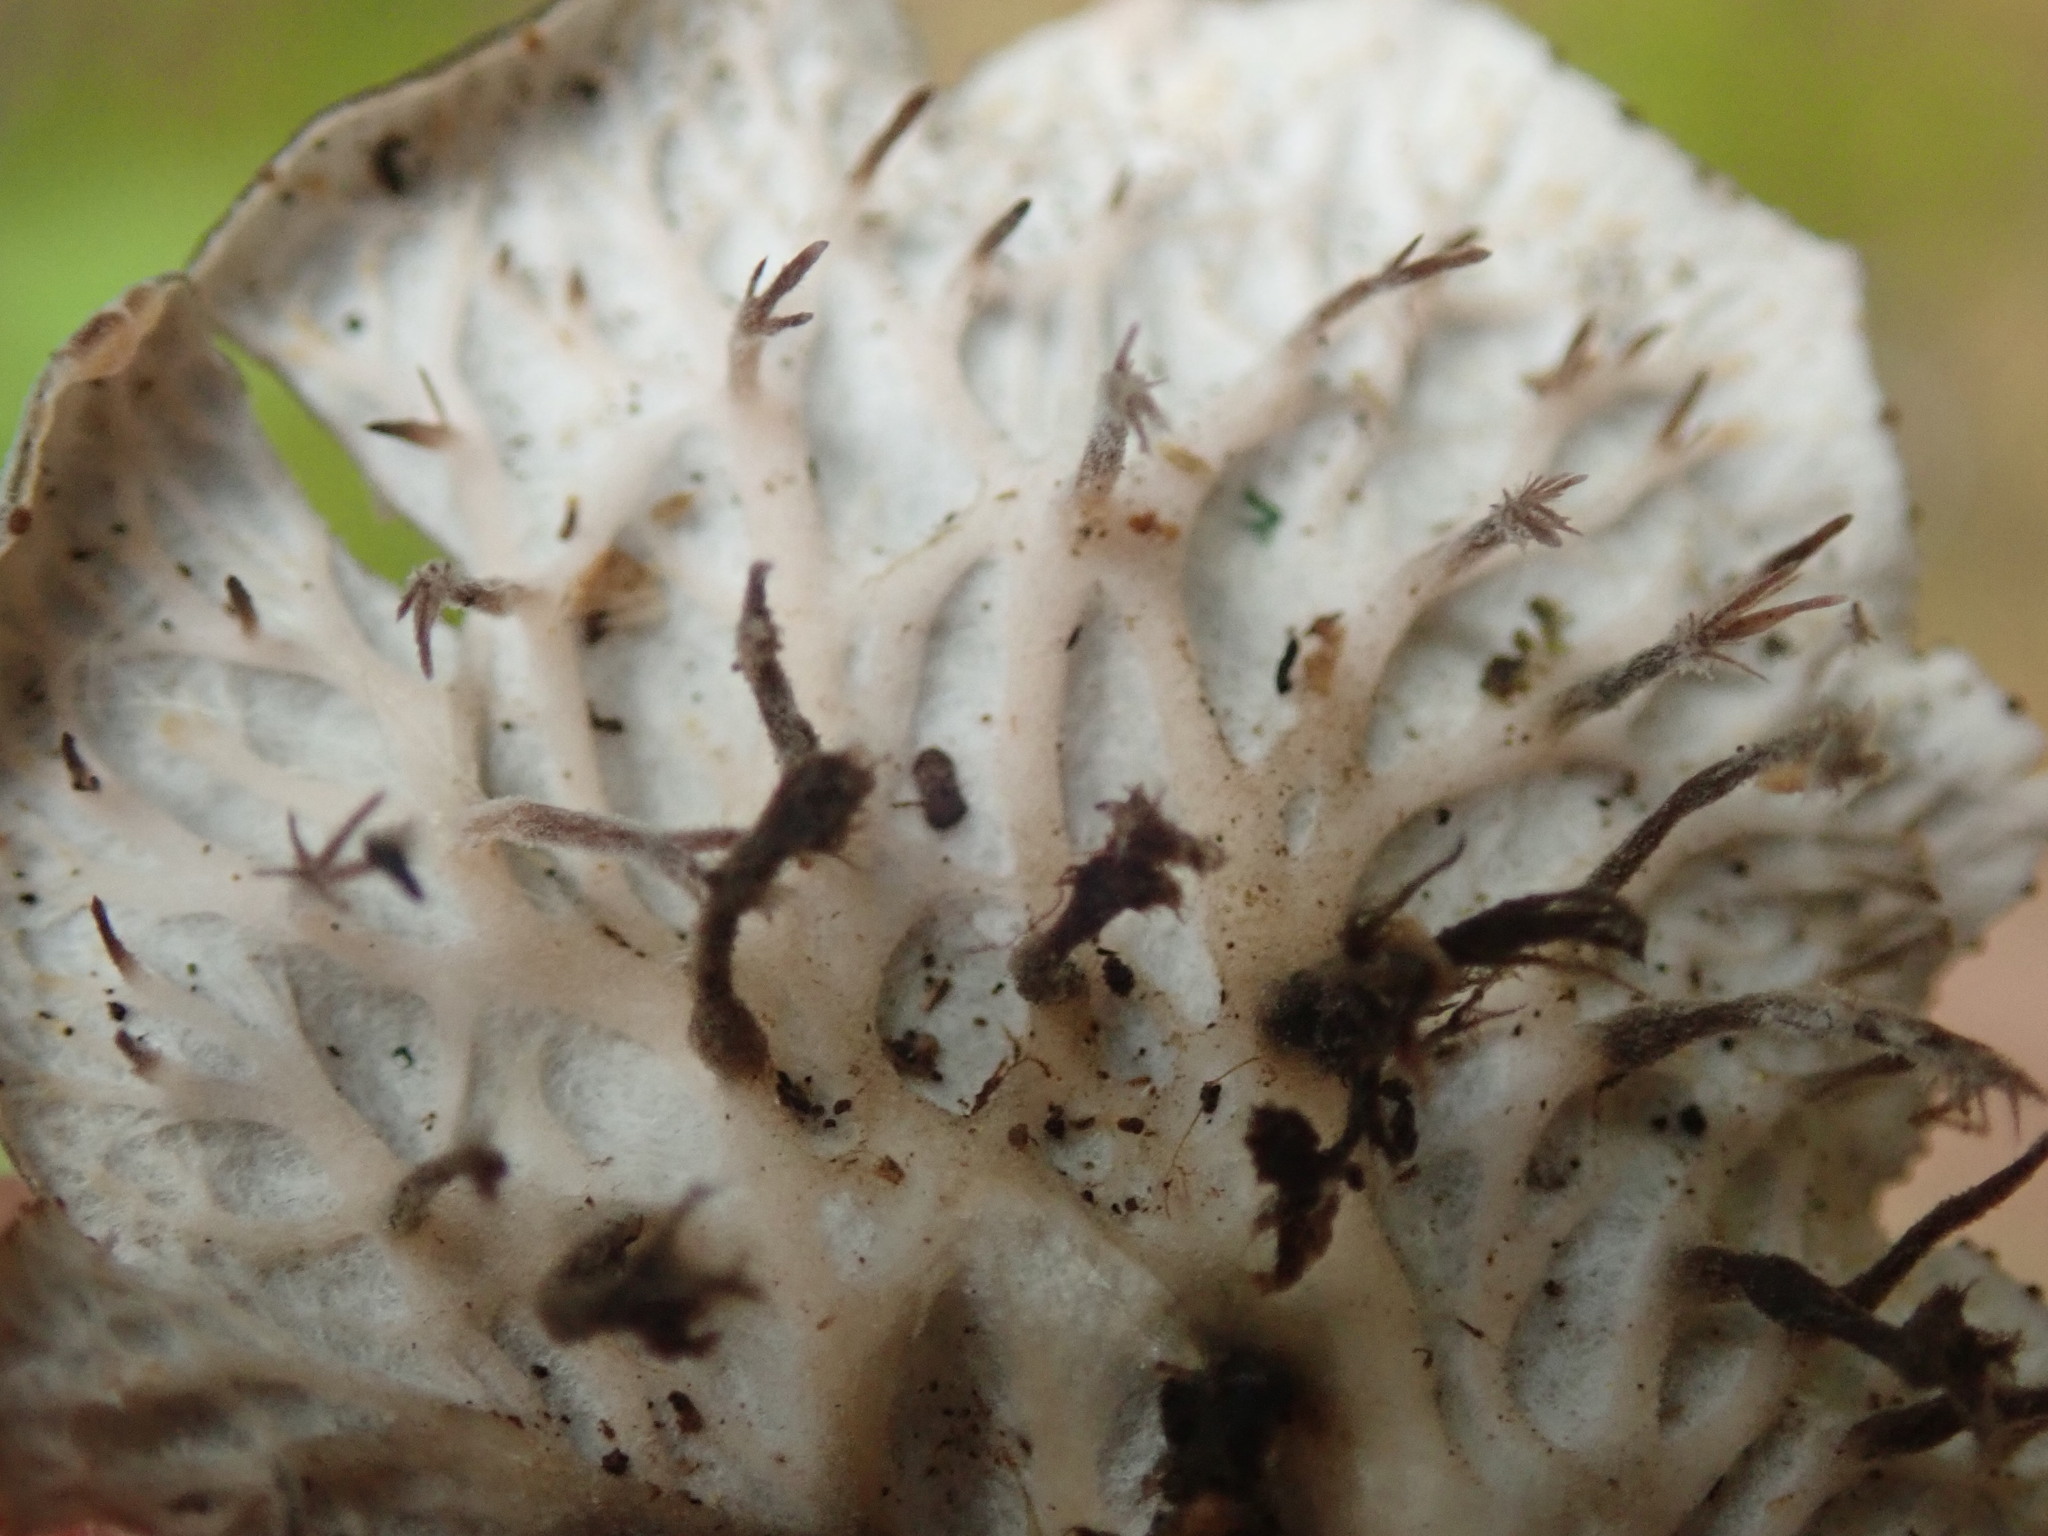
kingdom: Fungi
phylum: Ascomycota
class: Lecanoromycetes
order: Peltigerales
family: Peltigeraceae
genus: Peltigera
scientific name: Peltigera membranacea
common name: Membranous pelt lichen
